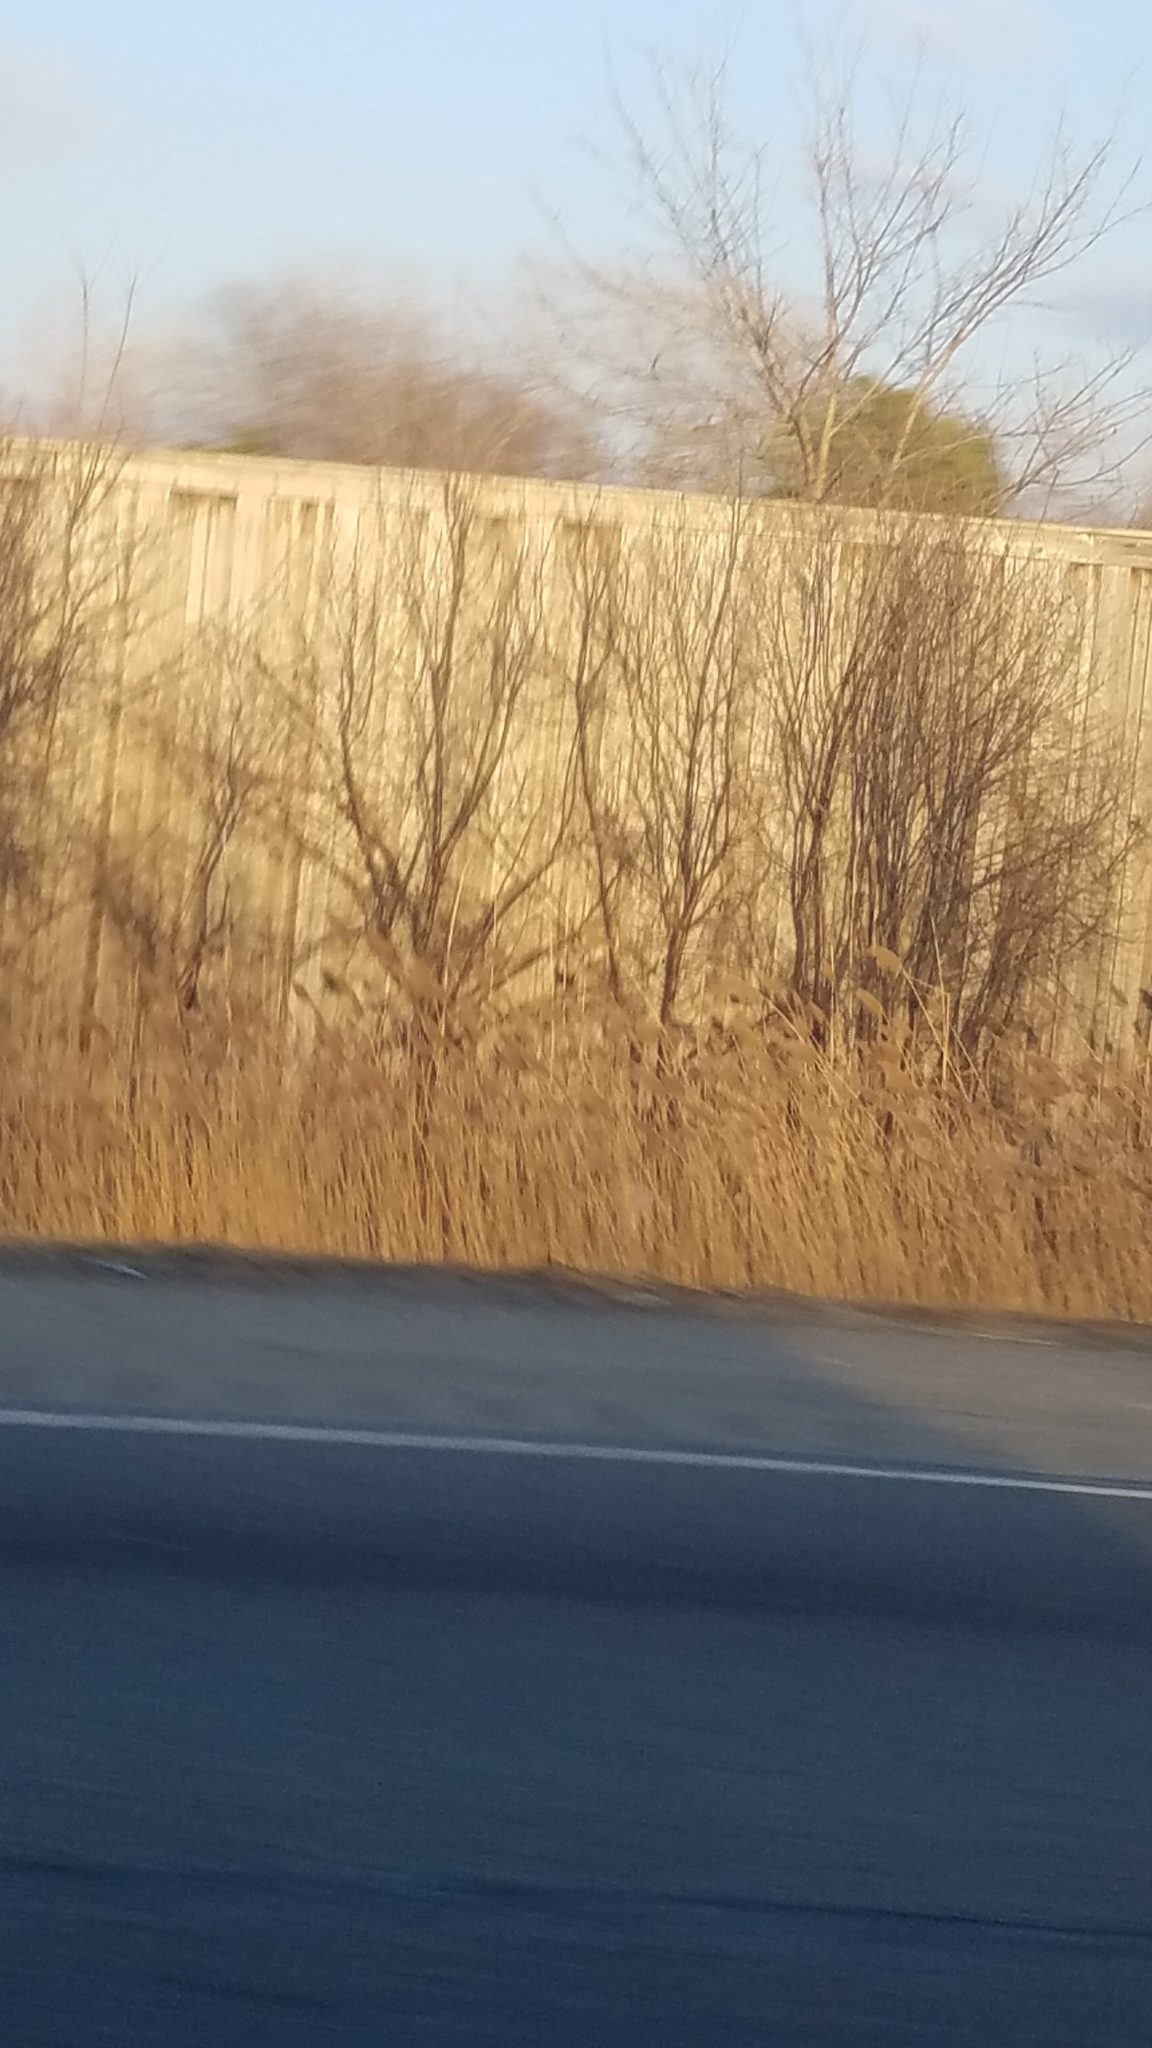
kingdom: Plantae
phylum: Tracheophyta
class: Liliopsida
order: Poales
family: Poaceae
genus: Phragmites
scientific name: Phragmites australis
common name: Common reed
